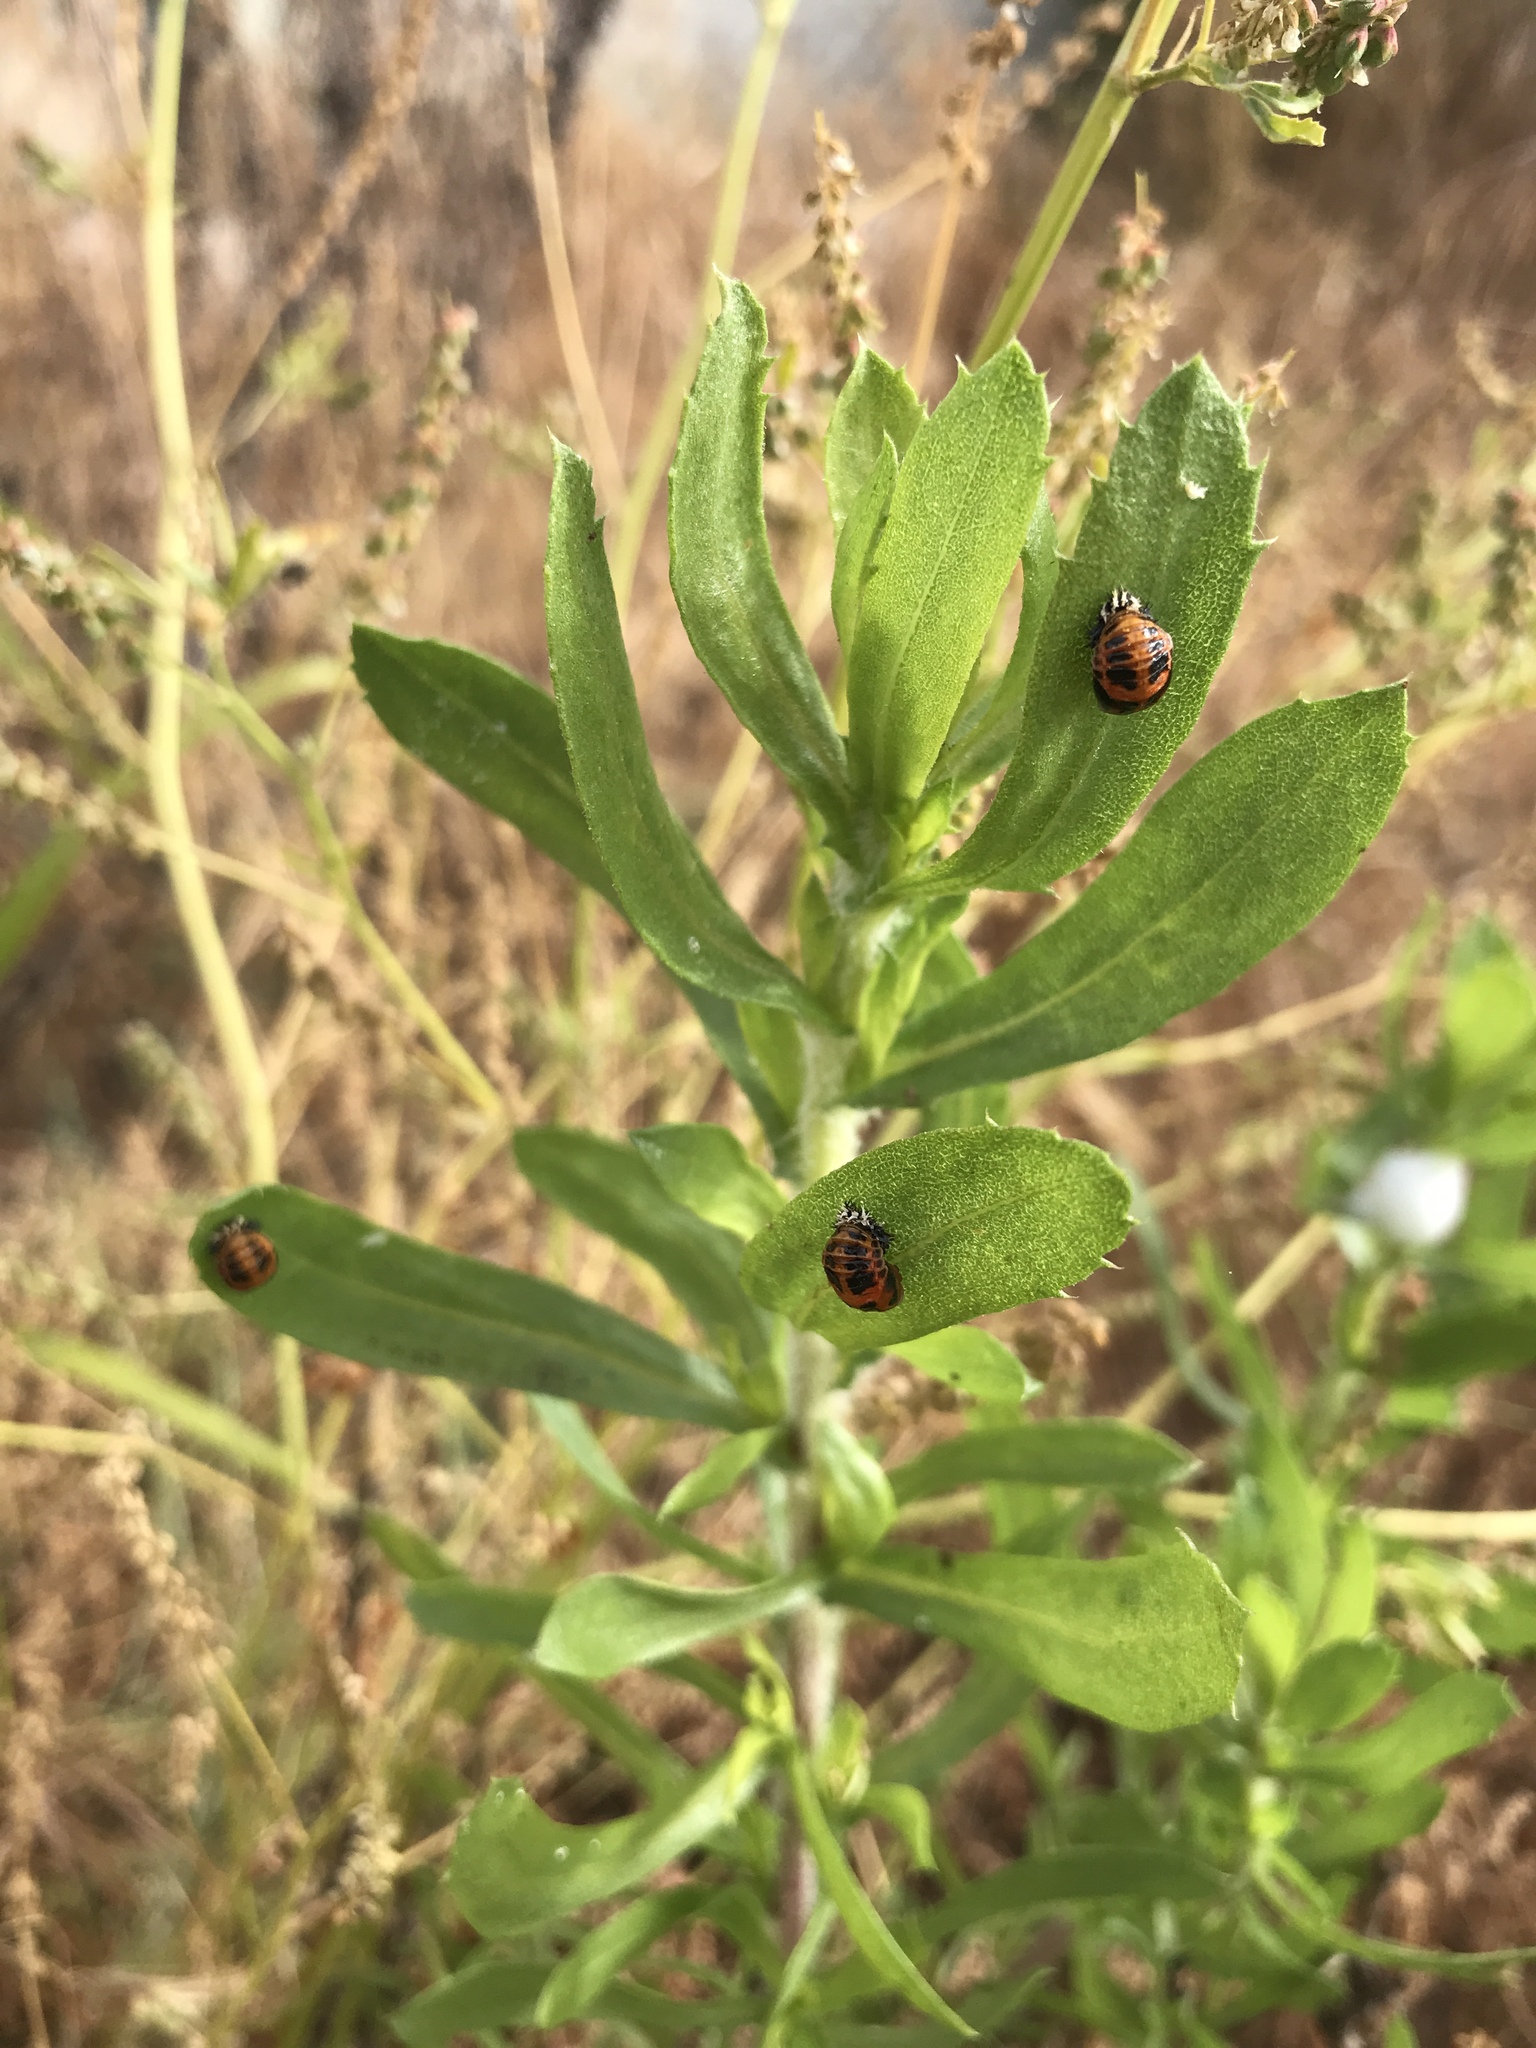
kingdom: Animalia
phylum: Arthropoda
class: Insecta
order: Coleoptera
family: Coccinellidae
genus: Harmonia
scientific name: Harmonia axyridis
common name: Harlequin ladybird
